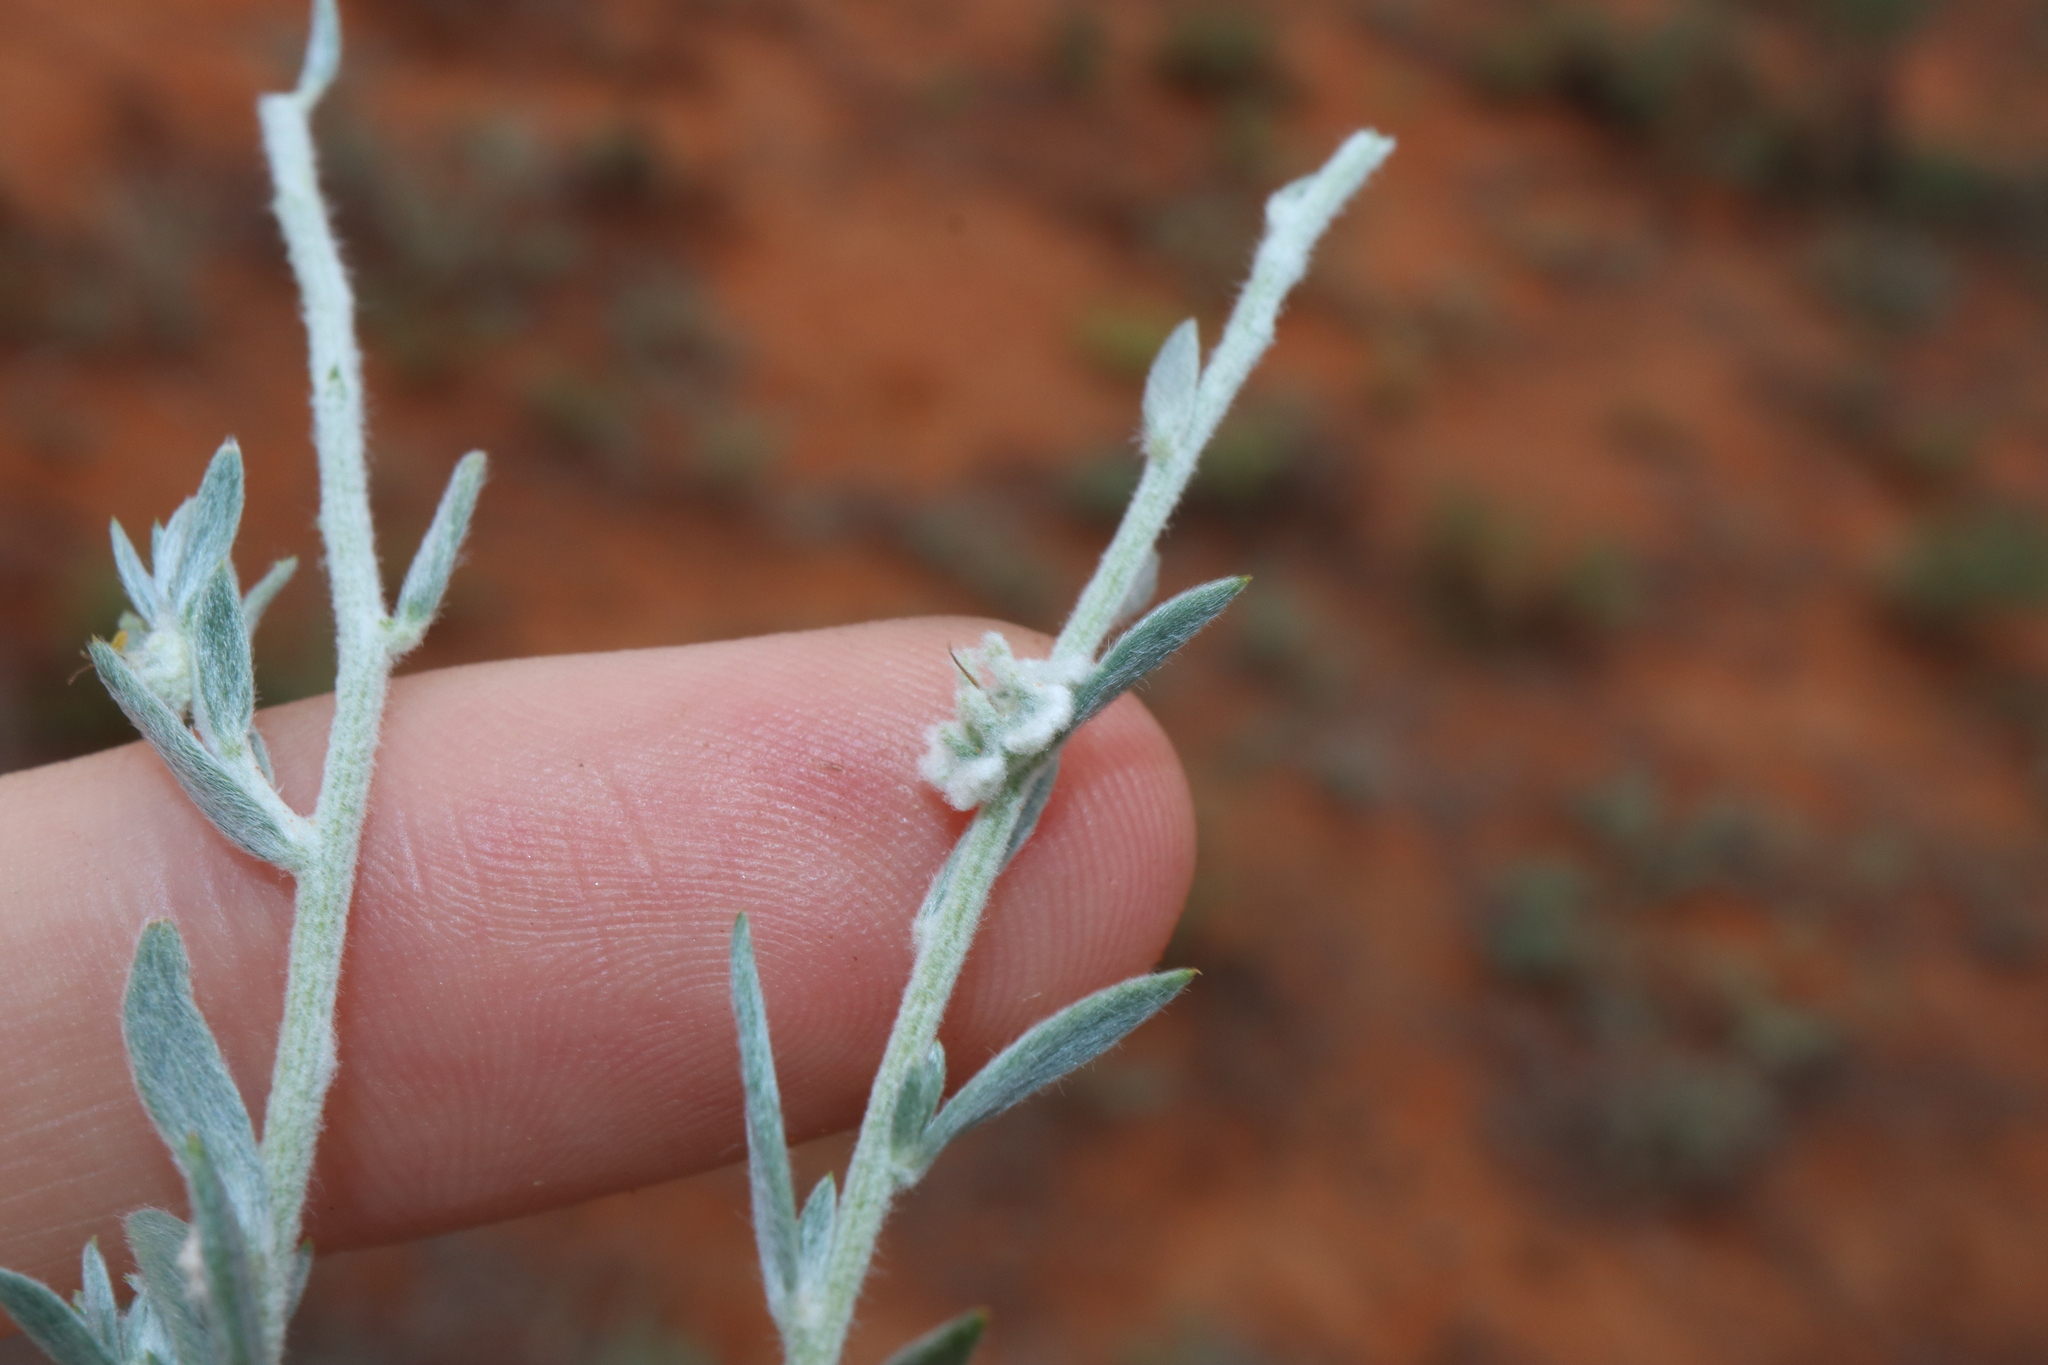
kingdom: Plantae
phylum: Tracheophyta
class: Magnoliopsida
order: Caryophyllales
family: Amaranthaceae
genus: Maireana
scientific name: Maireana lobiflora
